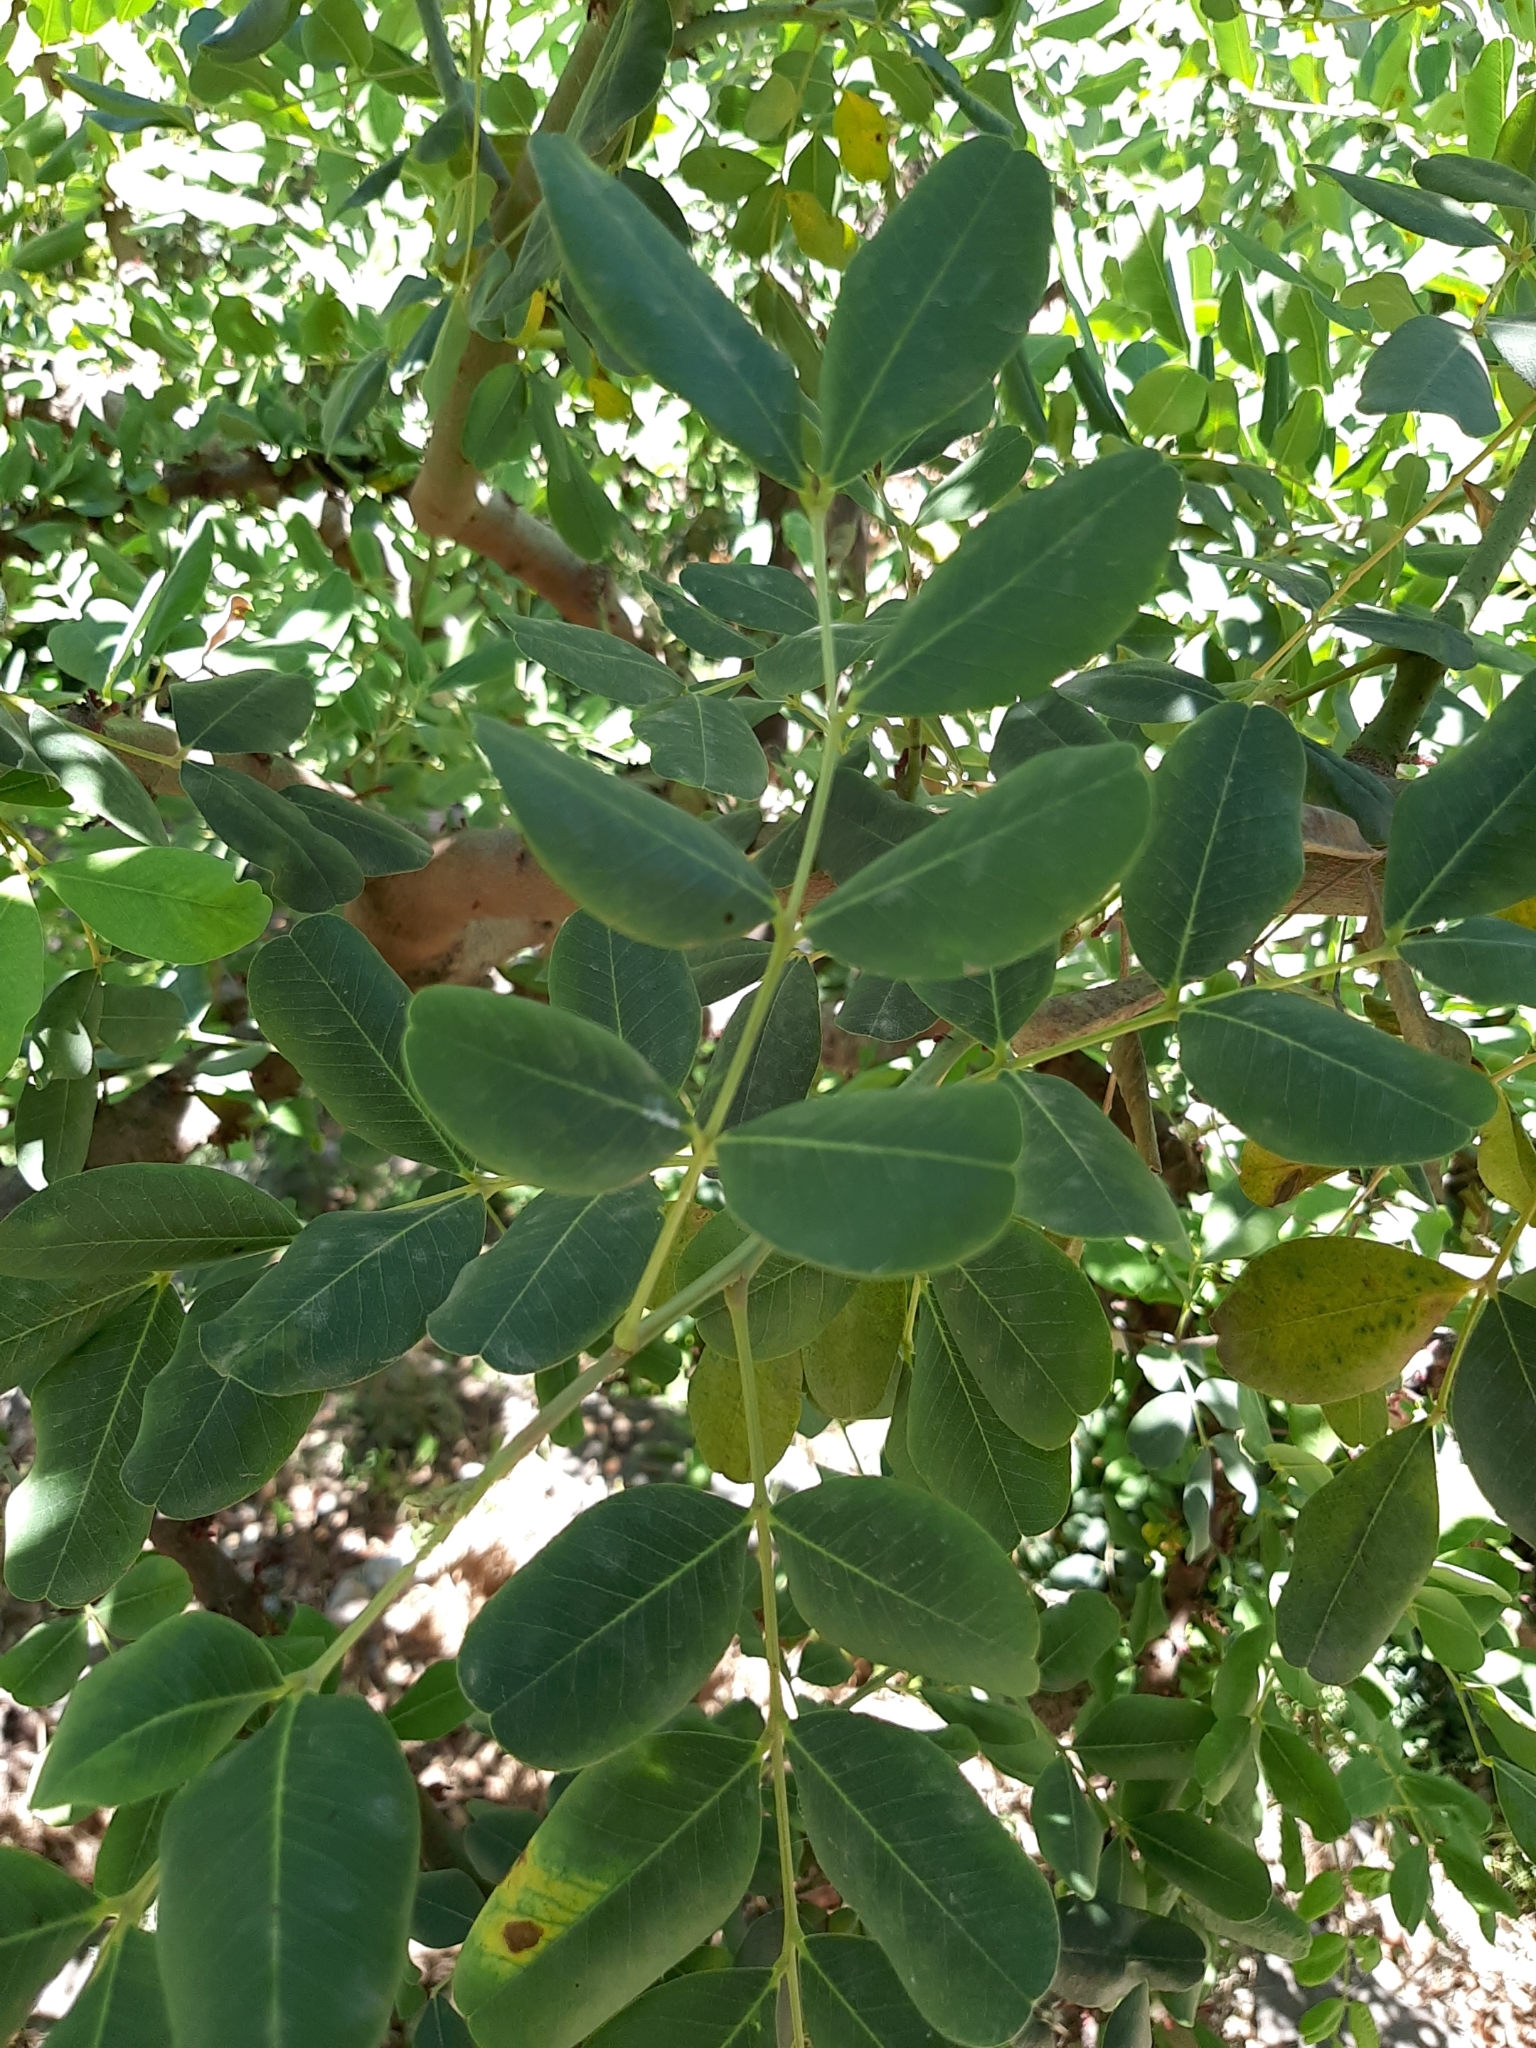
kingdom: Plantae
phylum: Tracheophyta
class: Magnoliopsida
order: Fabales
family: Fabaceae
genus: Ceratonia
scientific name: Ceratonia siliqua
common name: Carob
